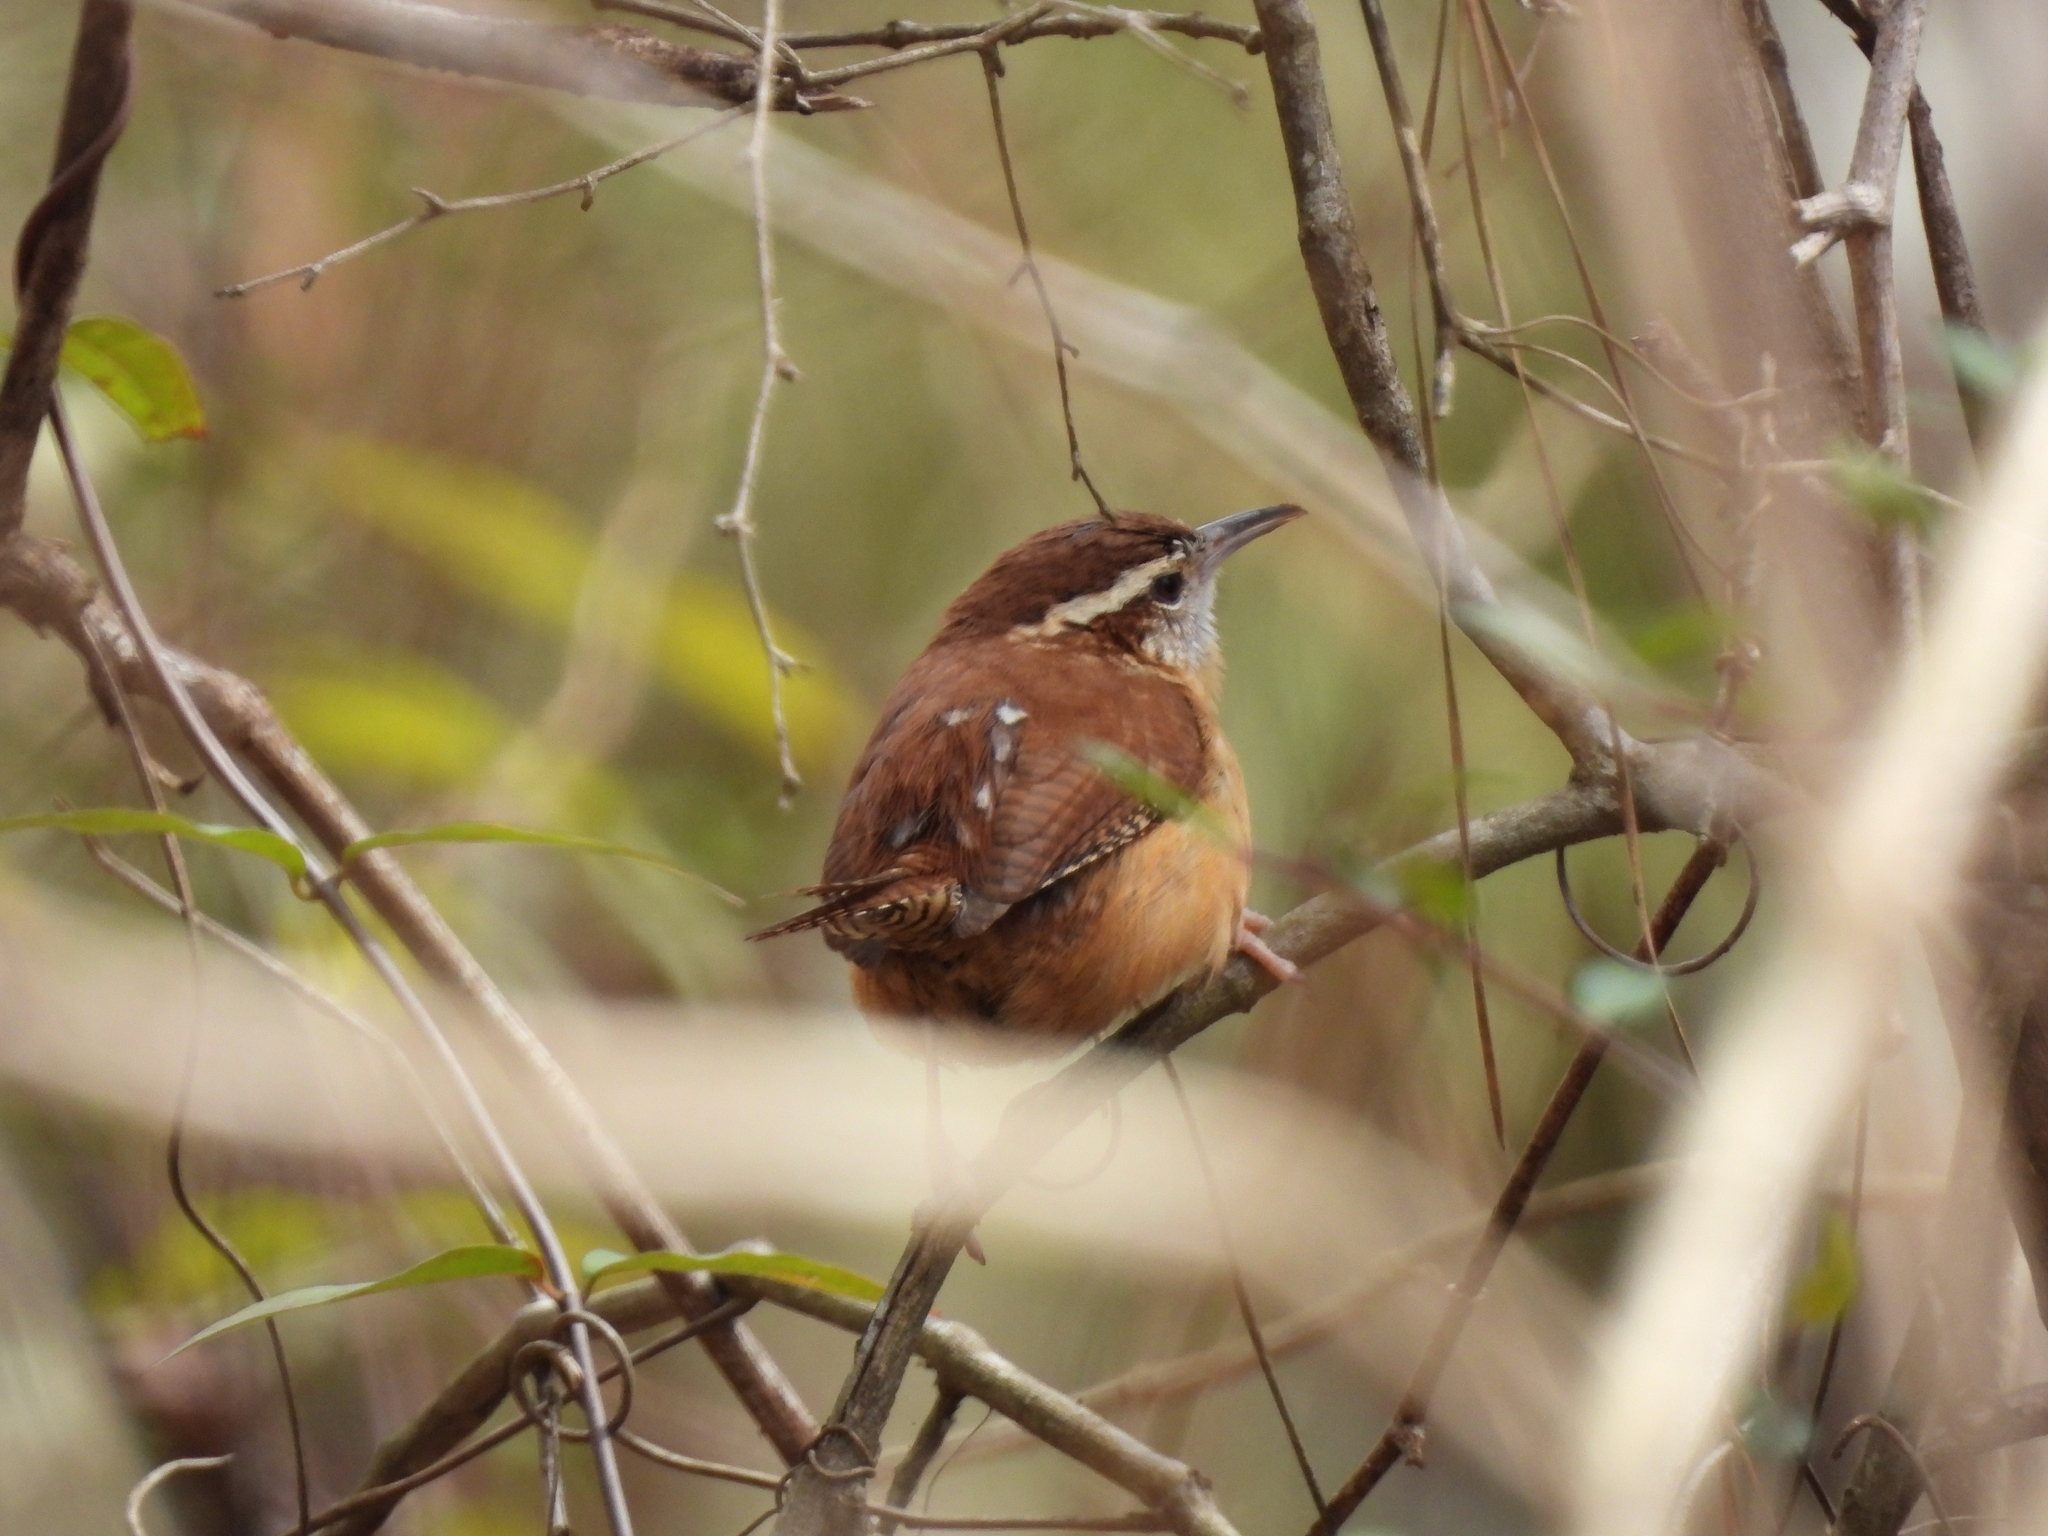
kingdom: Animalia
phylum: Chordata
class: Aves
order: Passeriformes
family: Troglodytidae
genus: Thryothorus
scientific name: Thryothorus ludovicianus
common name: Carolina wren
